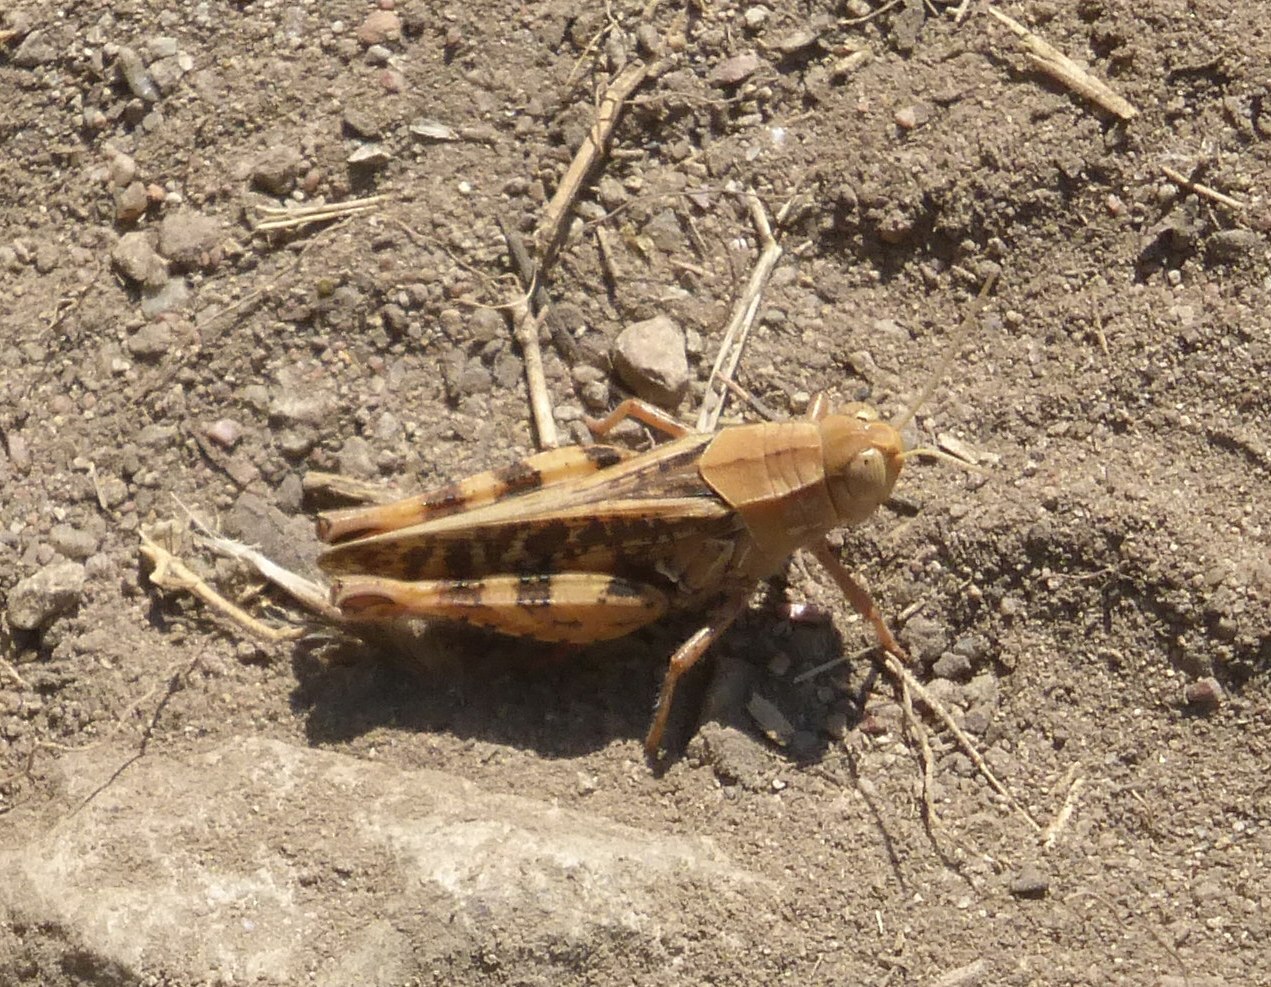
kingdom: Animalia
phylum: Arthropoda
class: Insecta
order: Orthoptera
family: Acrididae
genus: Calliptamus
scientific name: Calliptamus barbarus
